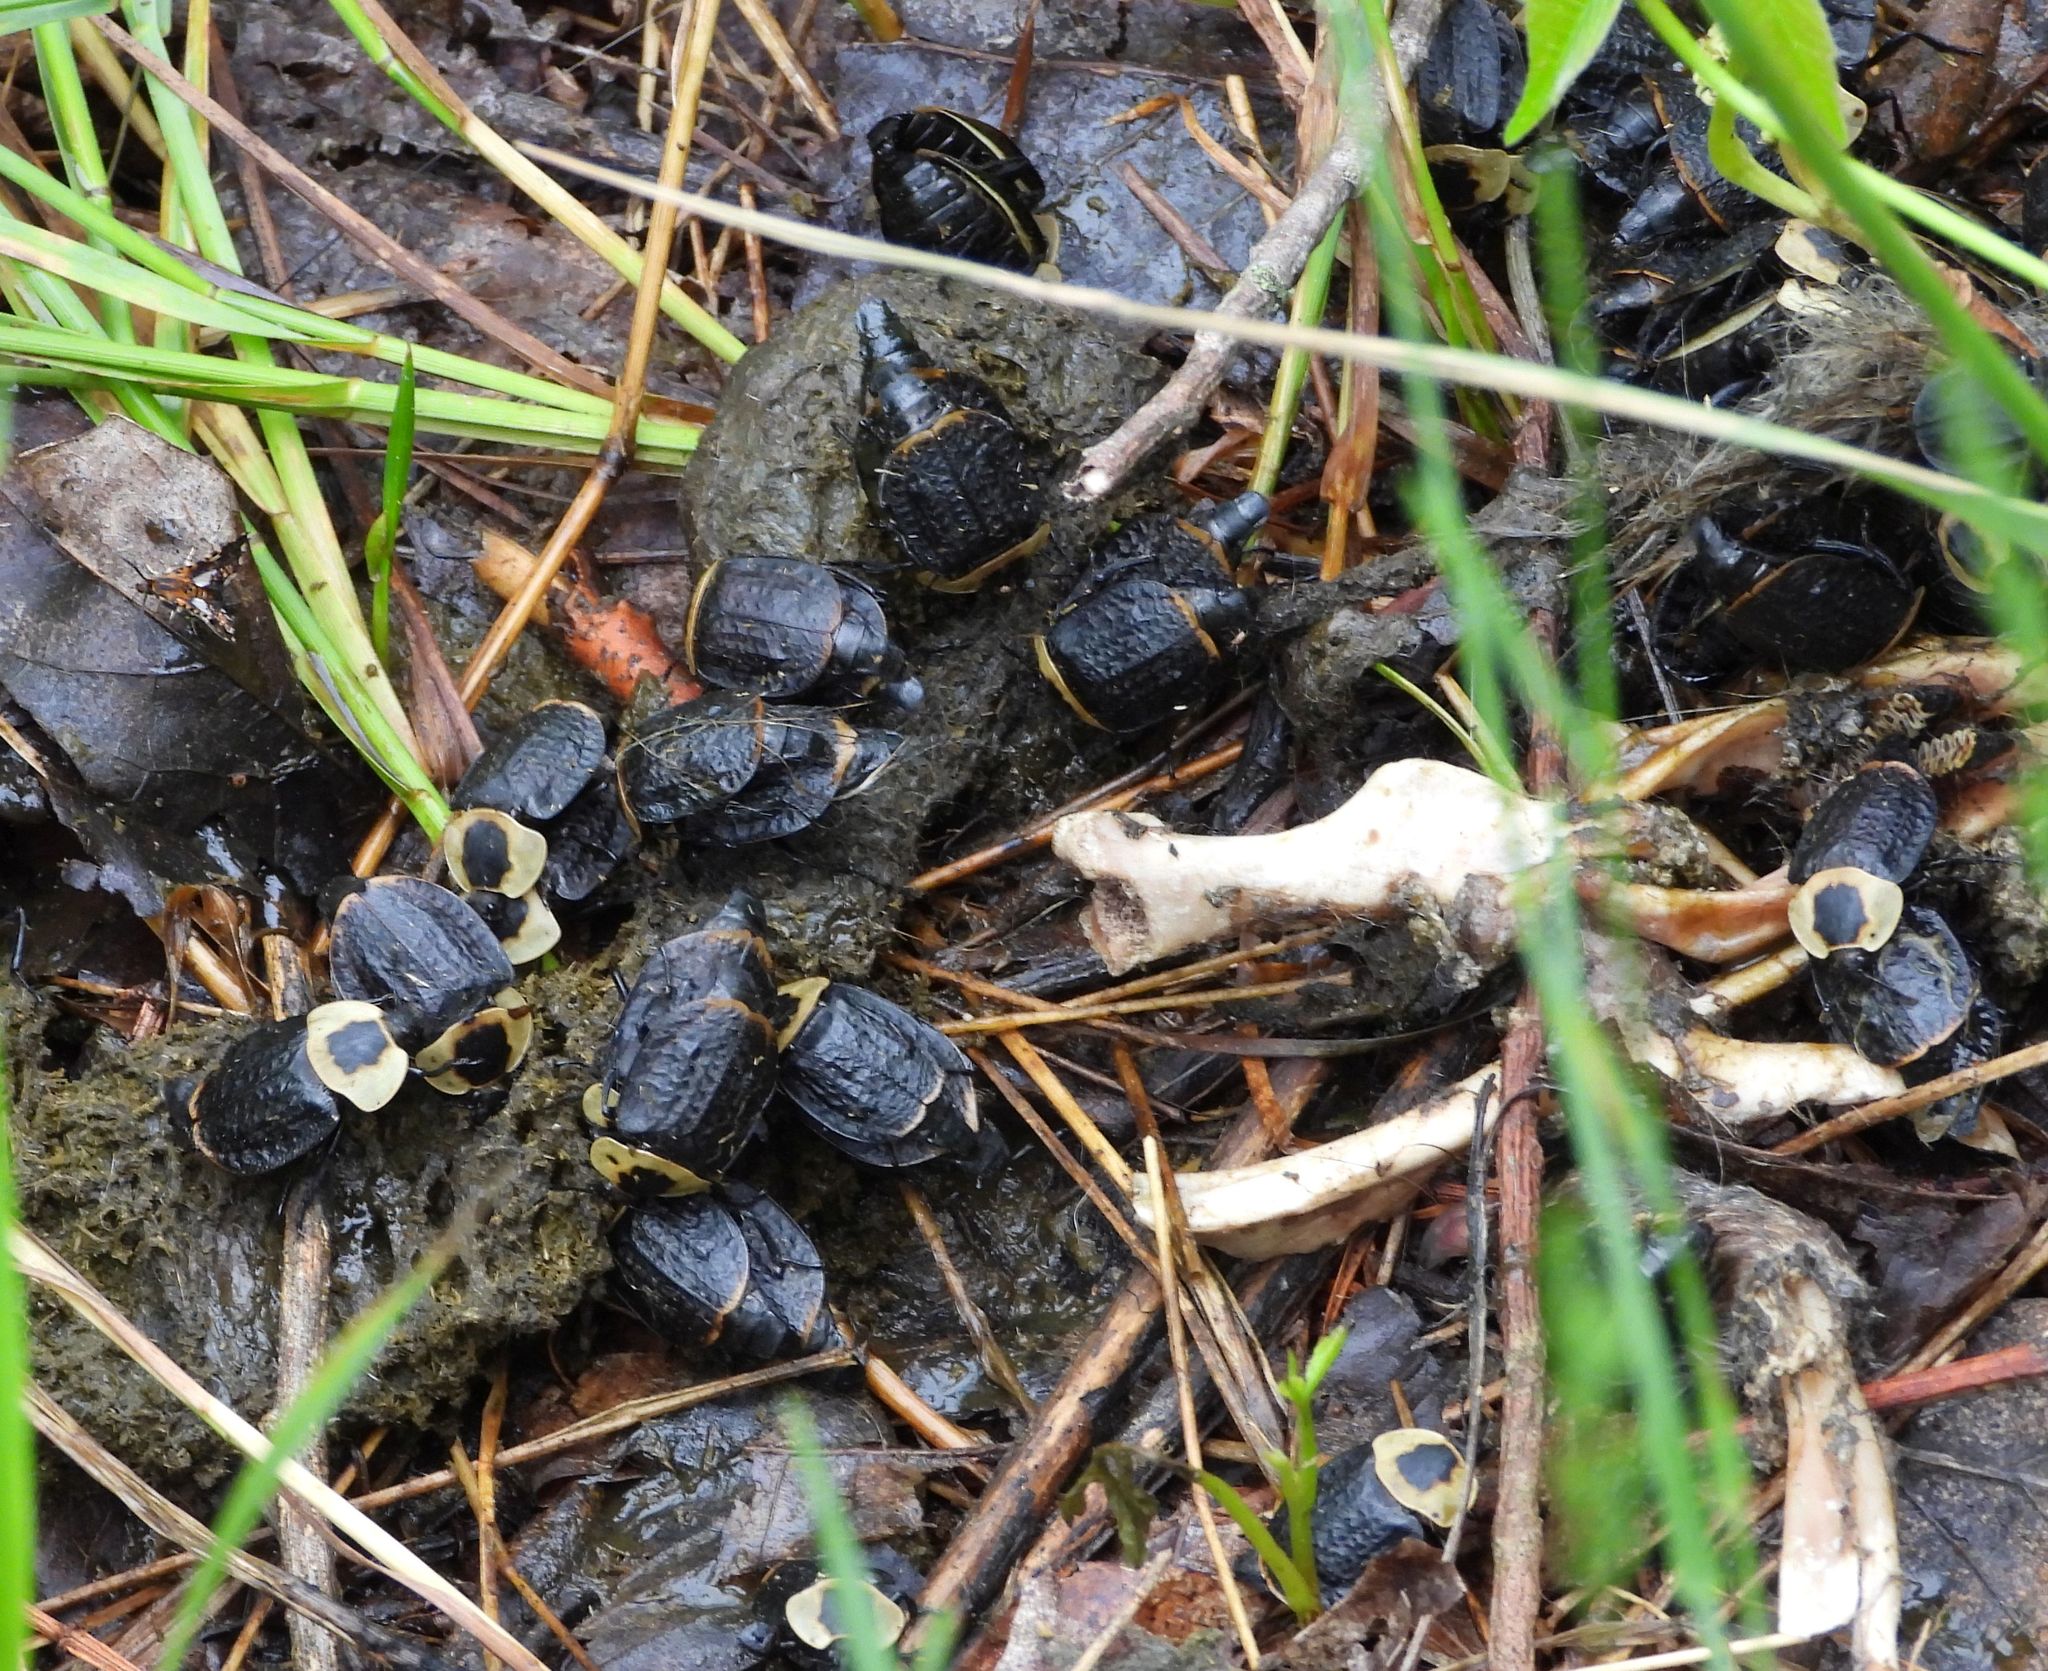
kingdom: Animalia
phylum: Arthropoda
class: Insecta
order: Coleoptera
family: Staphylinidae
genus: Necrophila
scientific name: Necrophila americana
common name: American carrion beetle
